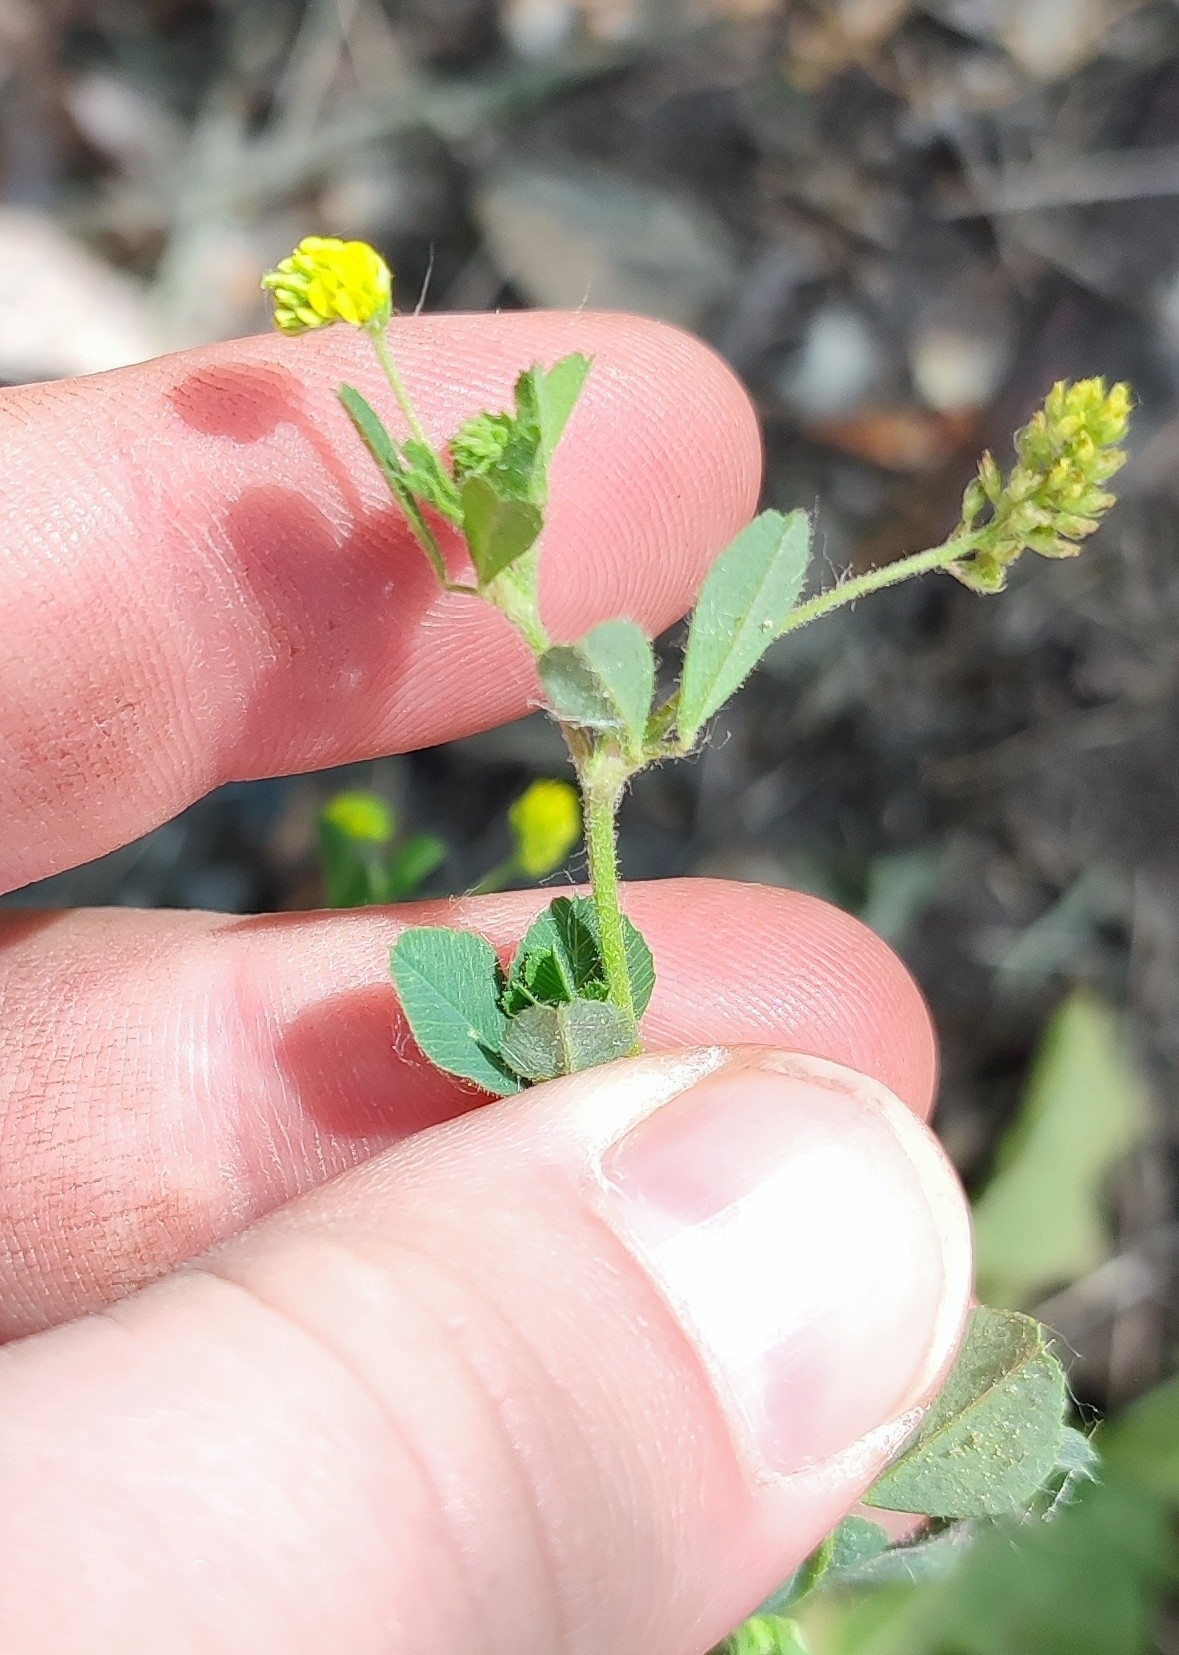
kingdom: Plantae
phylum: Tracheophyta
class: Magnoliopsida
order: Fabales
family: Fabaceae
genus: Medicago
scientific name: Medicago lupulina
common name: Black medick
